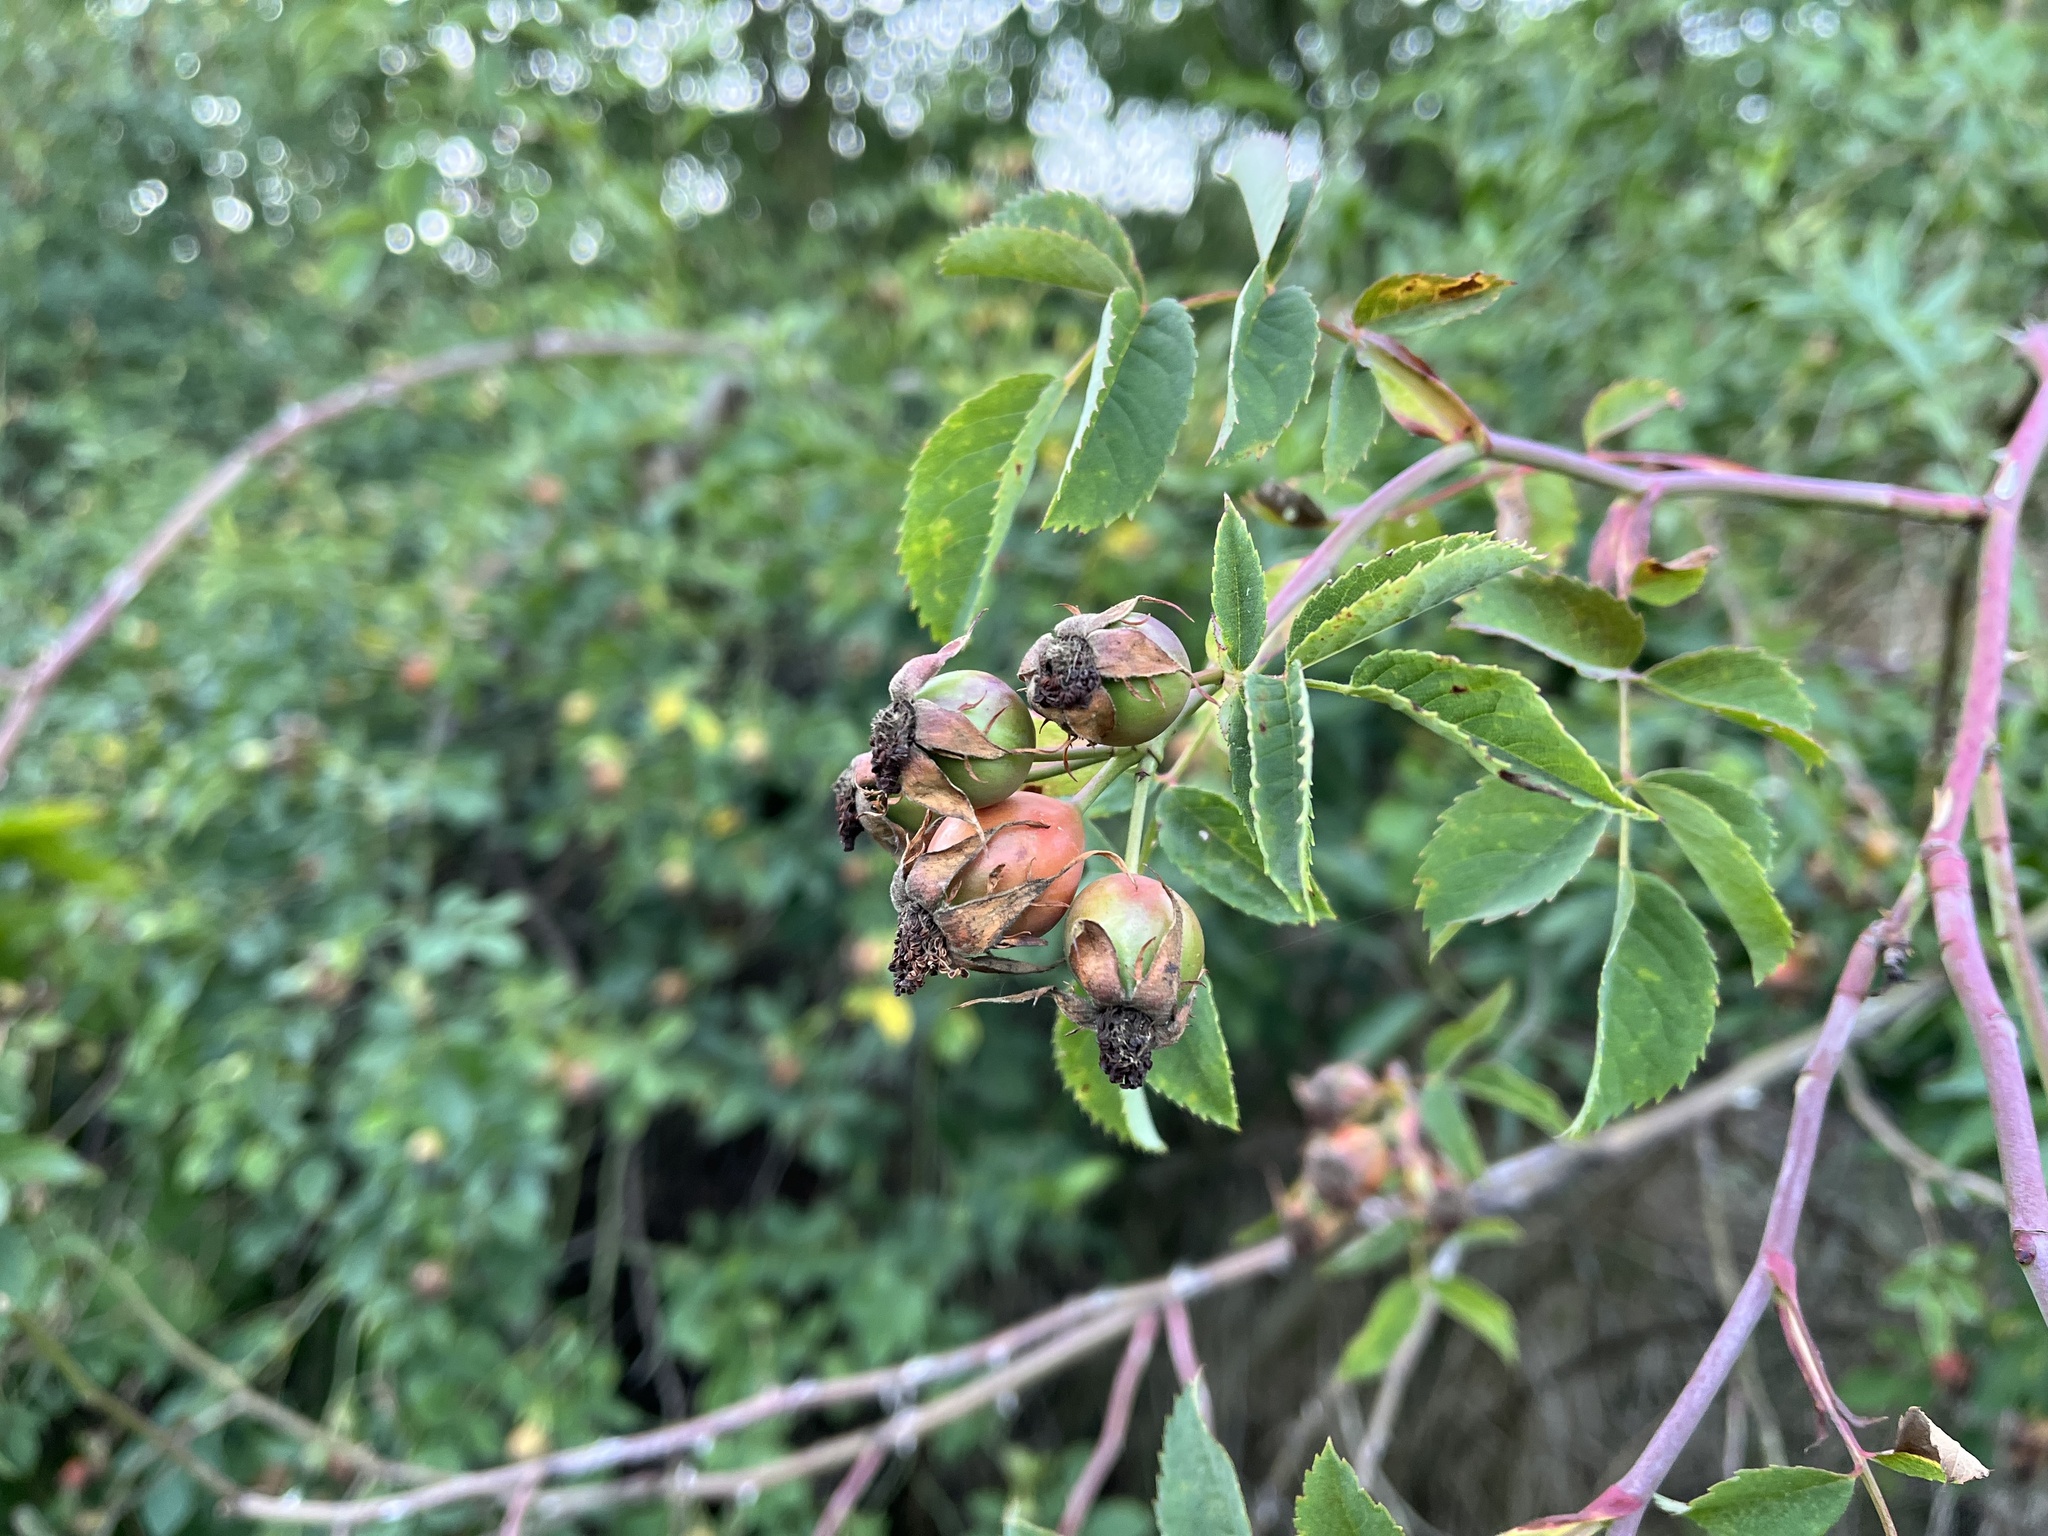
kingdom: Plantae
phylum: Tracheophyta
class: Magnoliopsida
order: Rosales
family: Rosaceae
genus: Rosa
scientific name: Rosa canina
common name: Dog rose
